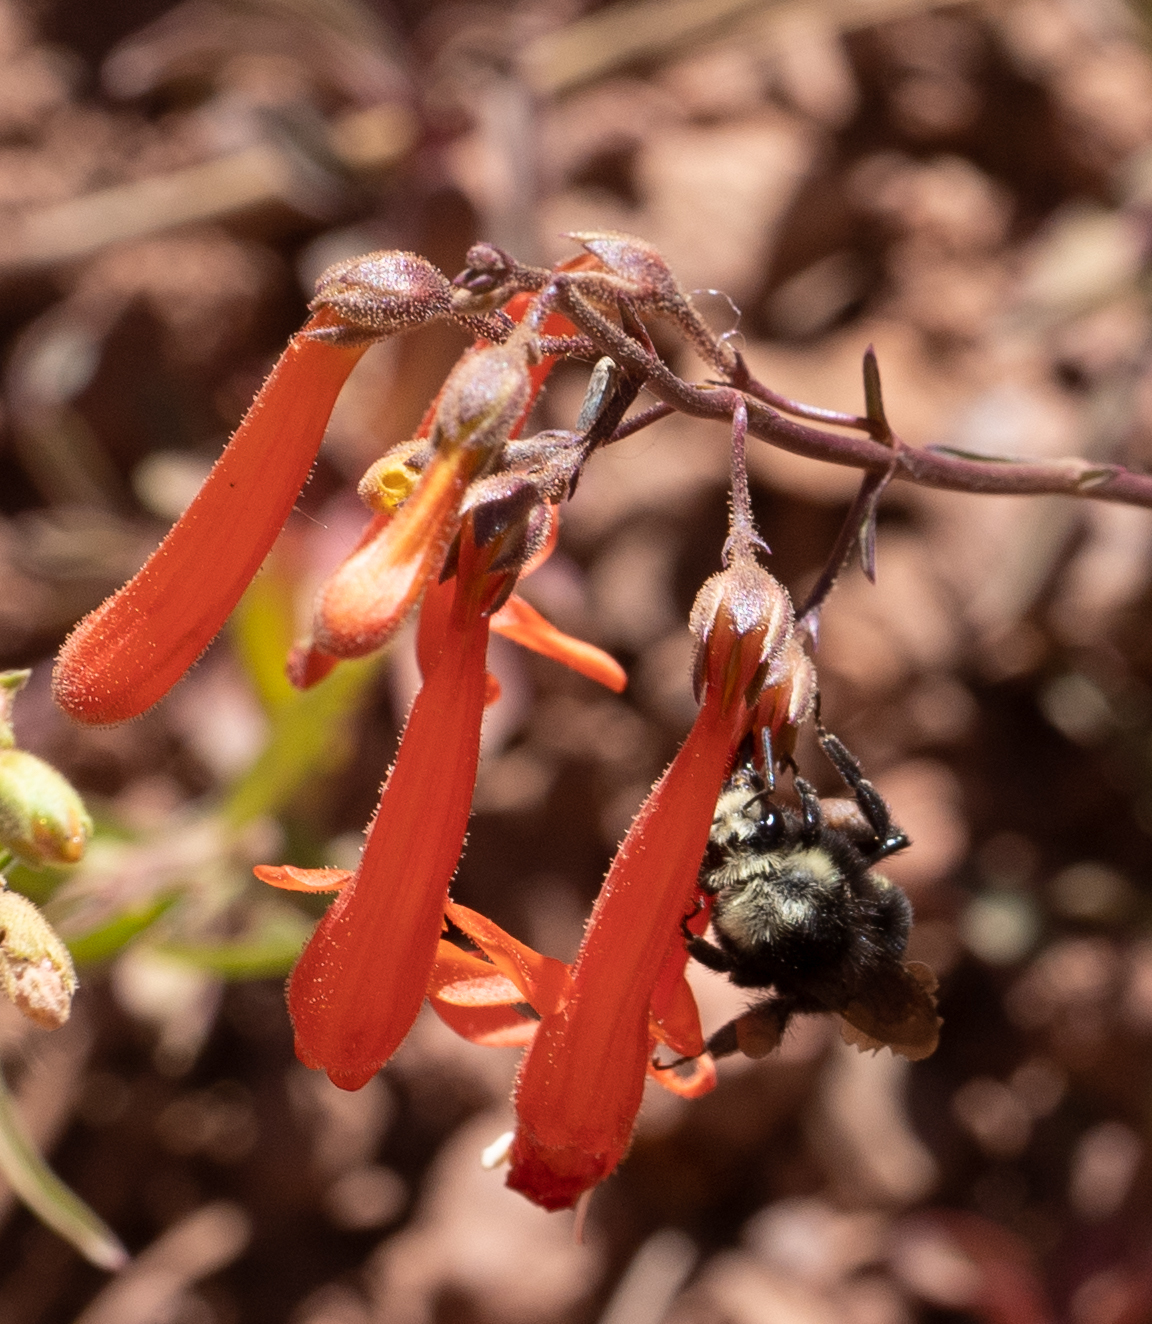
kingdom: Animalia
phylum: Arthropoda
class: Insecta
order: Hymenoptera
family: Apidae
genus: Bombus
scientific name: Bombus vosnesenskii
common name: Vosnesensky bumble bee
